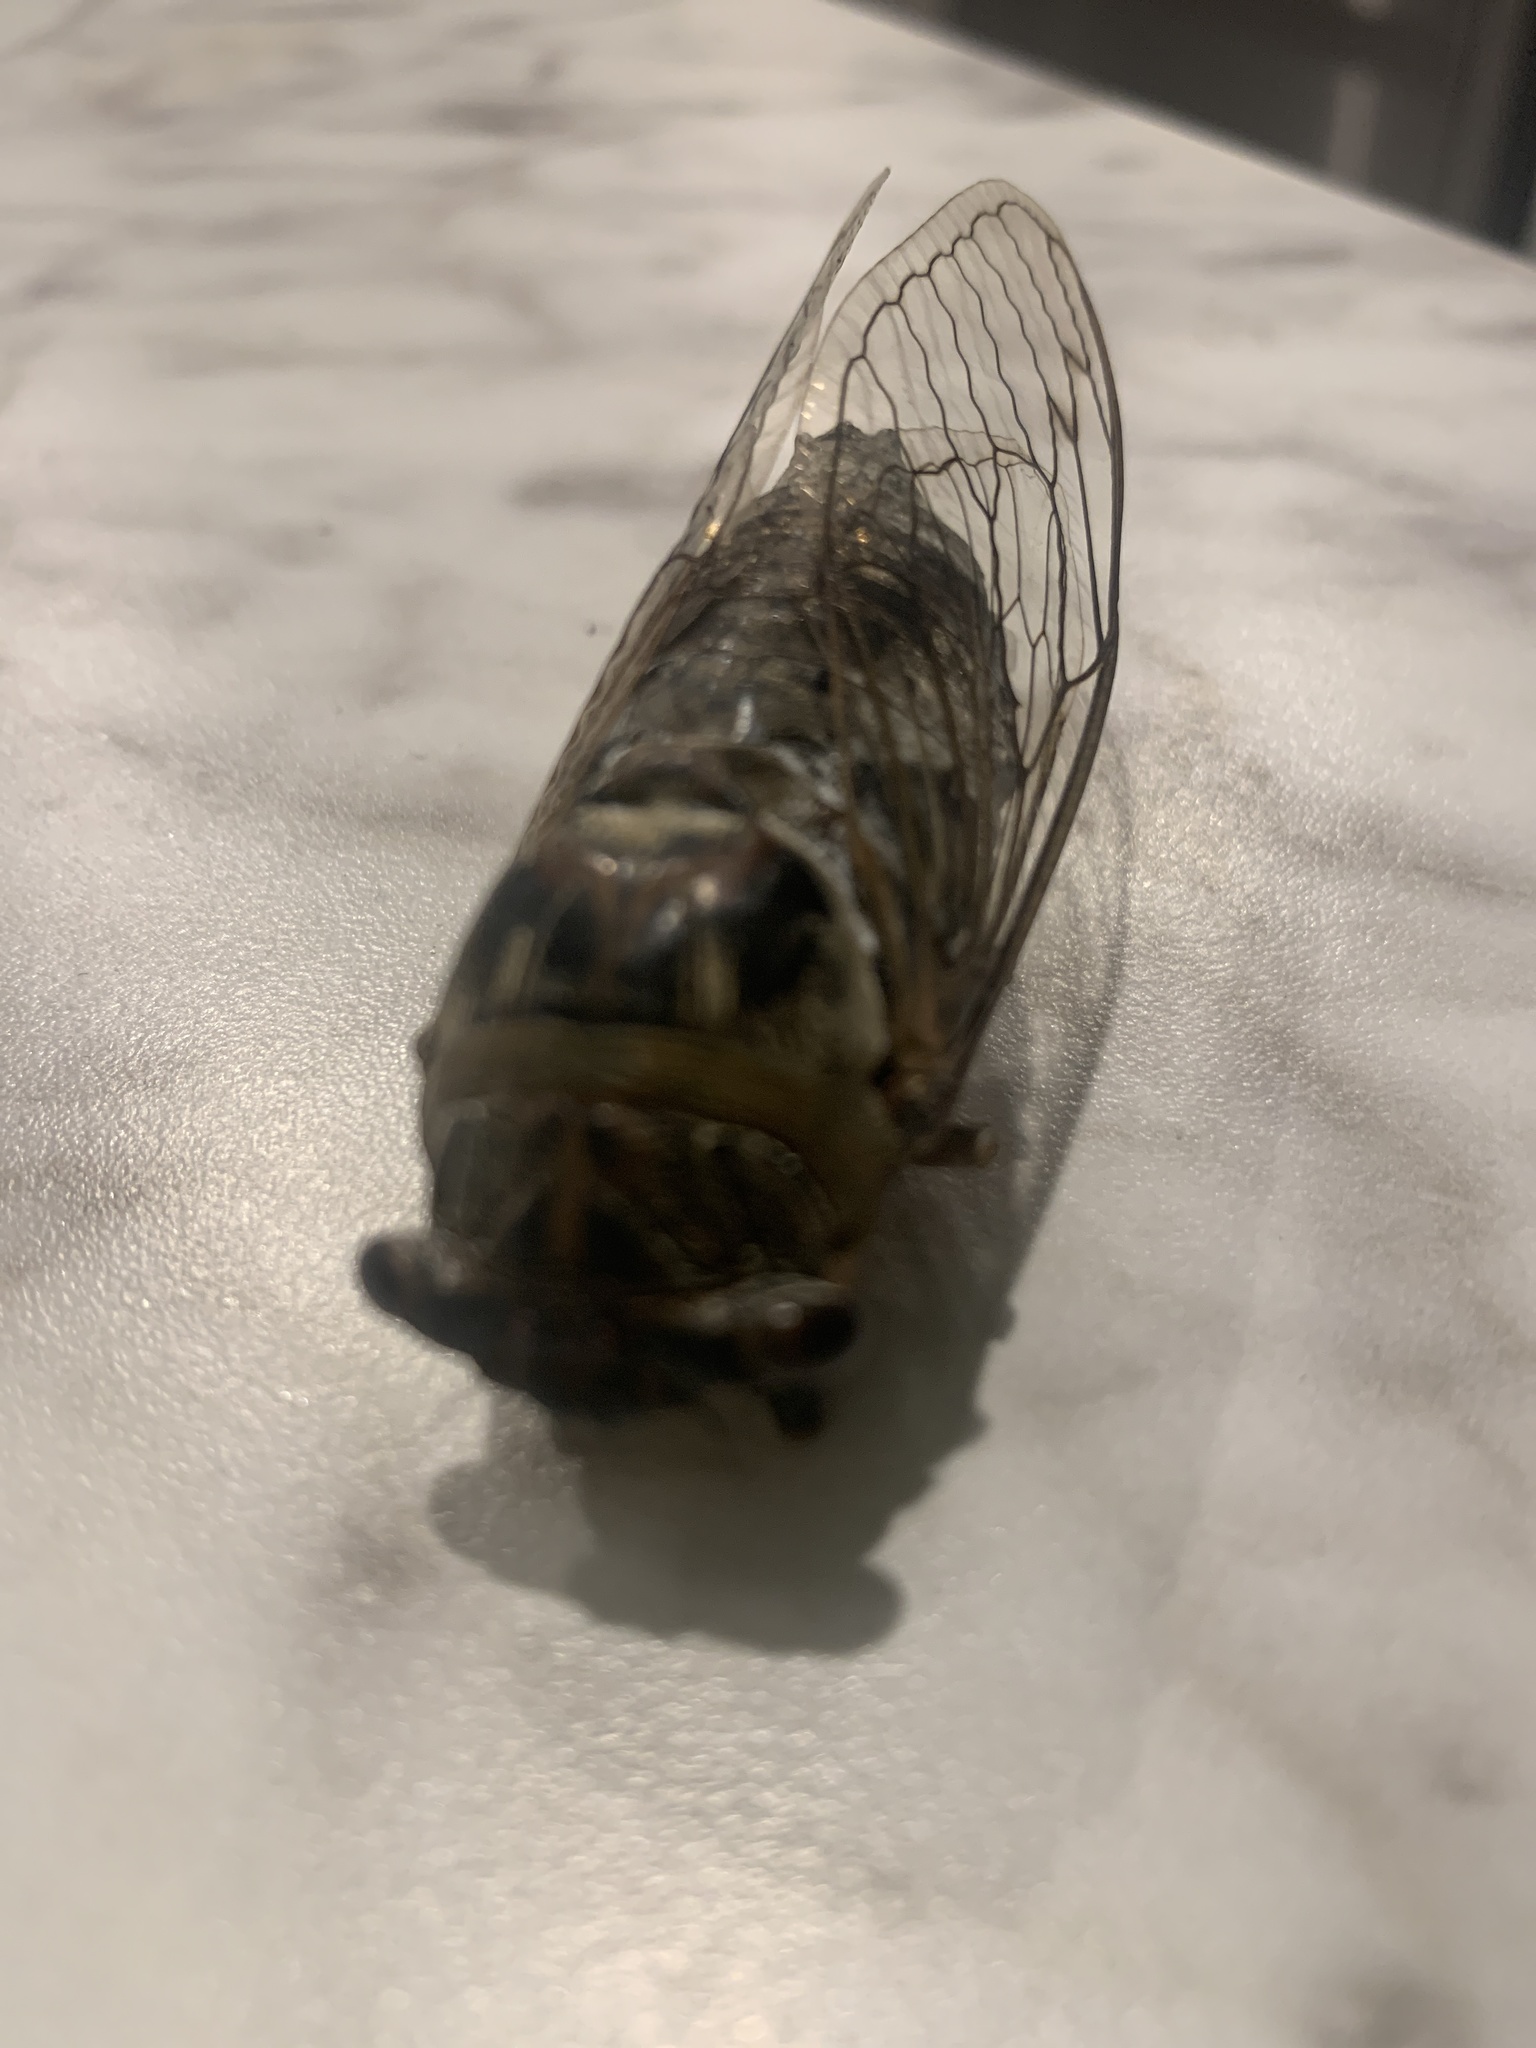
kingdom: Animalia
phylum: Arthropoda
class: Insecta
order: Hemiptera
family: Cicadidae
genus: Diceroprocta
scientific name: Diceroprocta grossa
